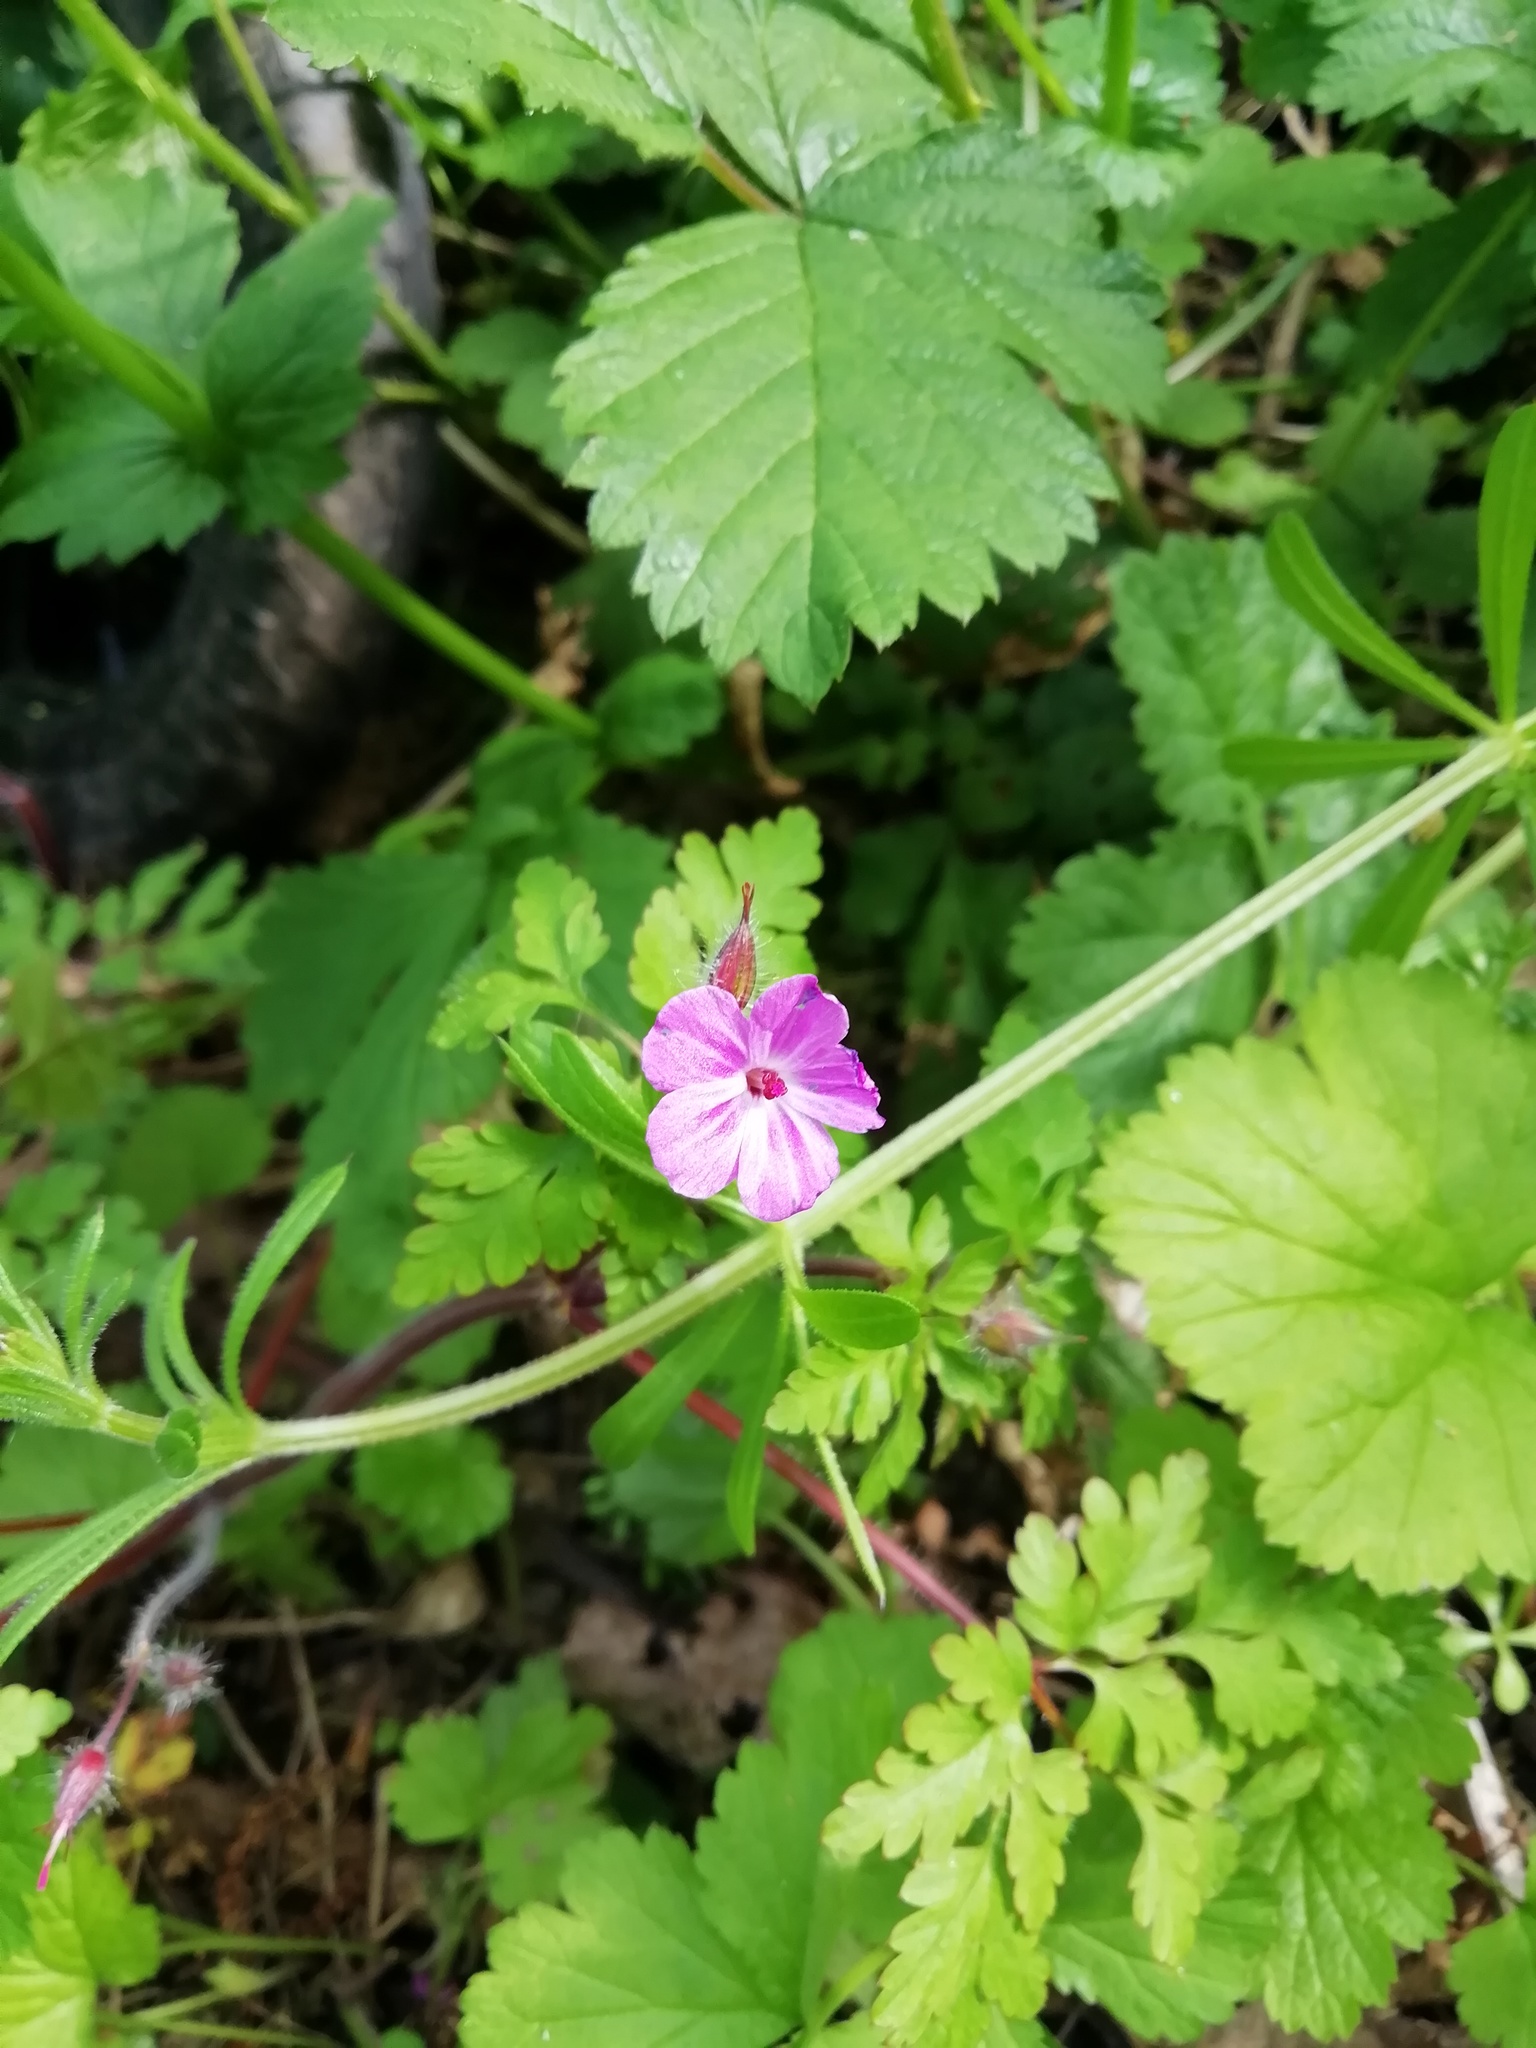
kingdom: Plantae
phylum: Tracheophyta
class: Magnoliopsida
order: Geraniales
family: Geraniaceae
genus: Geranium
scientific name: Geranium robertianum
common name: Herb-robert
